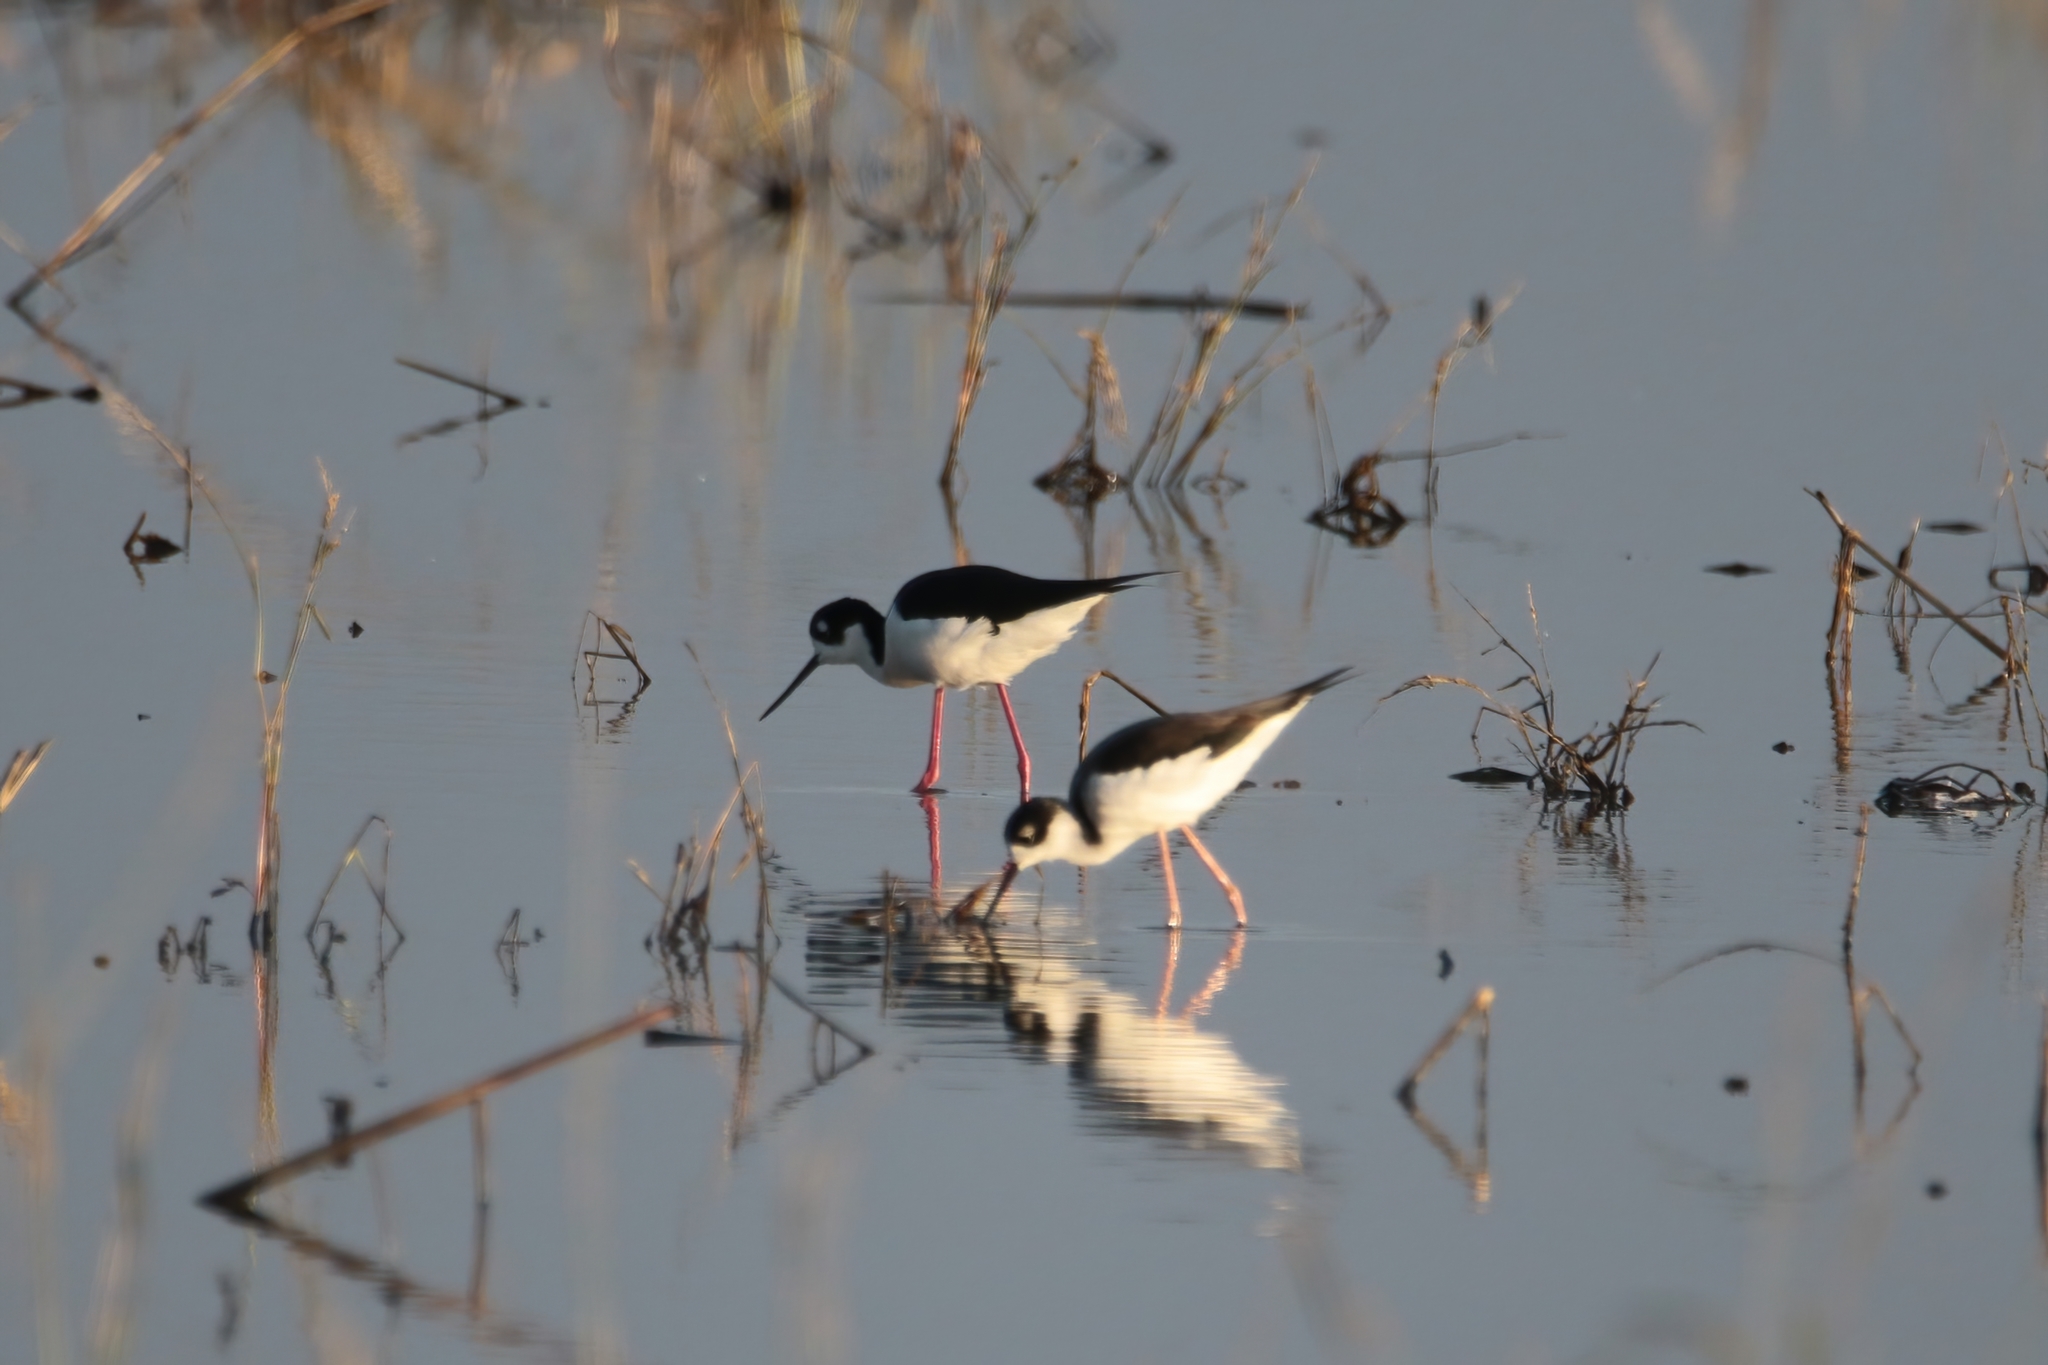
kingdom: Animalia
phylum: Chordata
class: Aves
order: Charadriiformes
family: Recurvirostridae
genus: Himantopus
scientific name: Himantopus mexicanus
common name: Black-necked stilt
